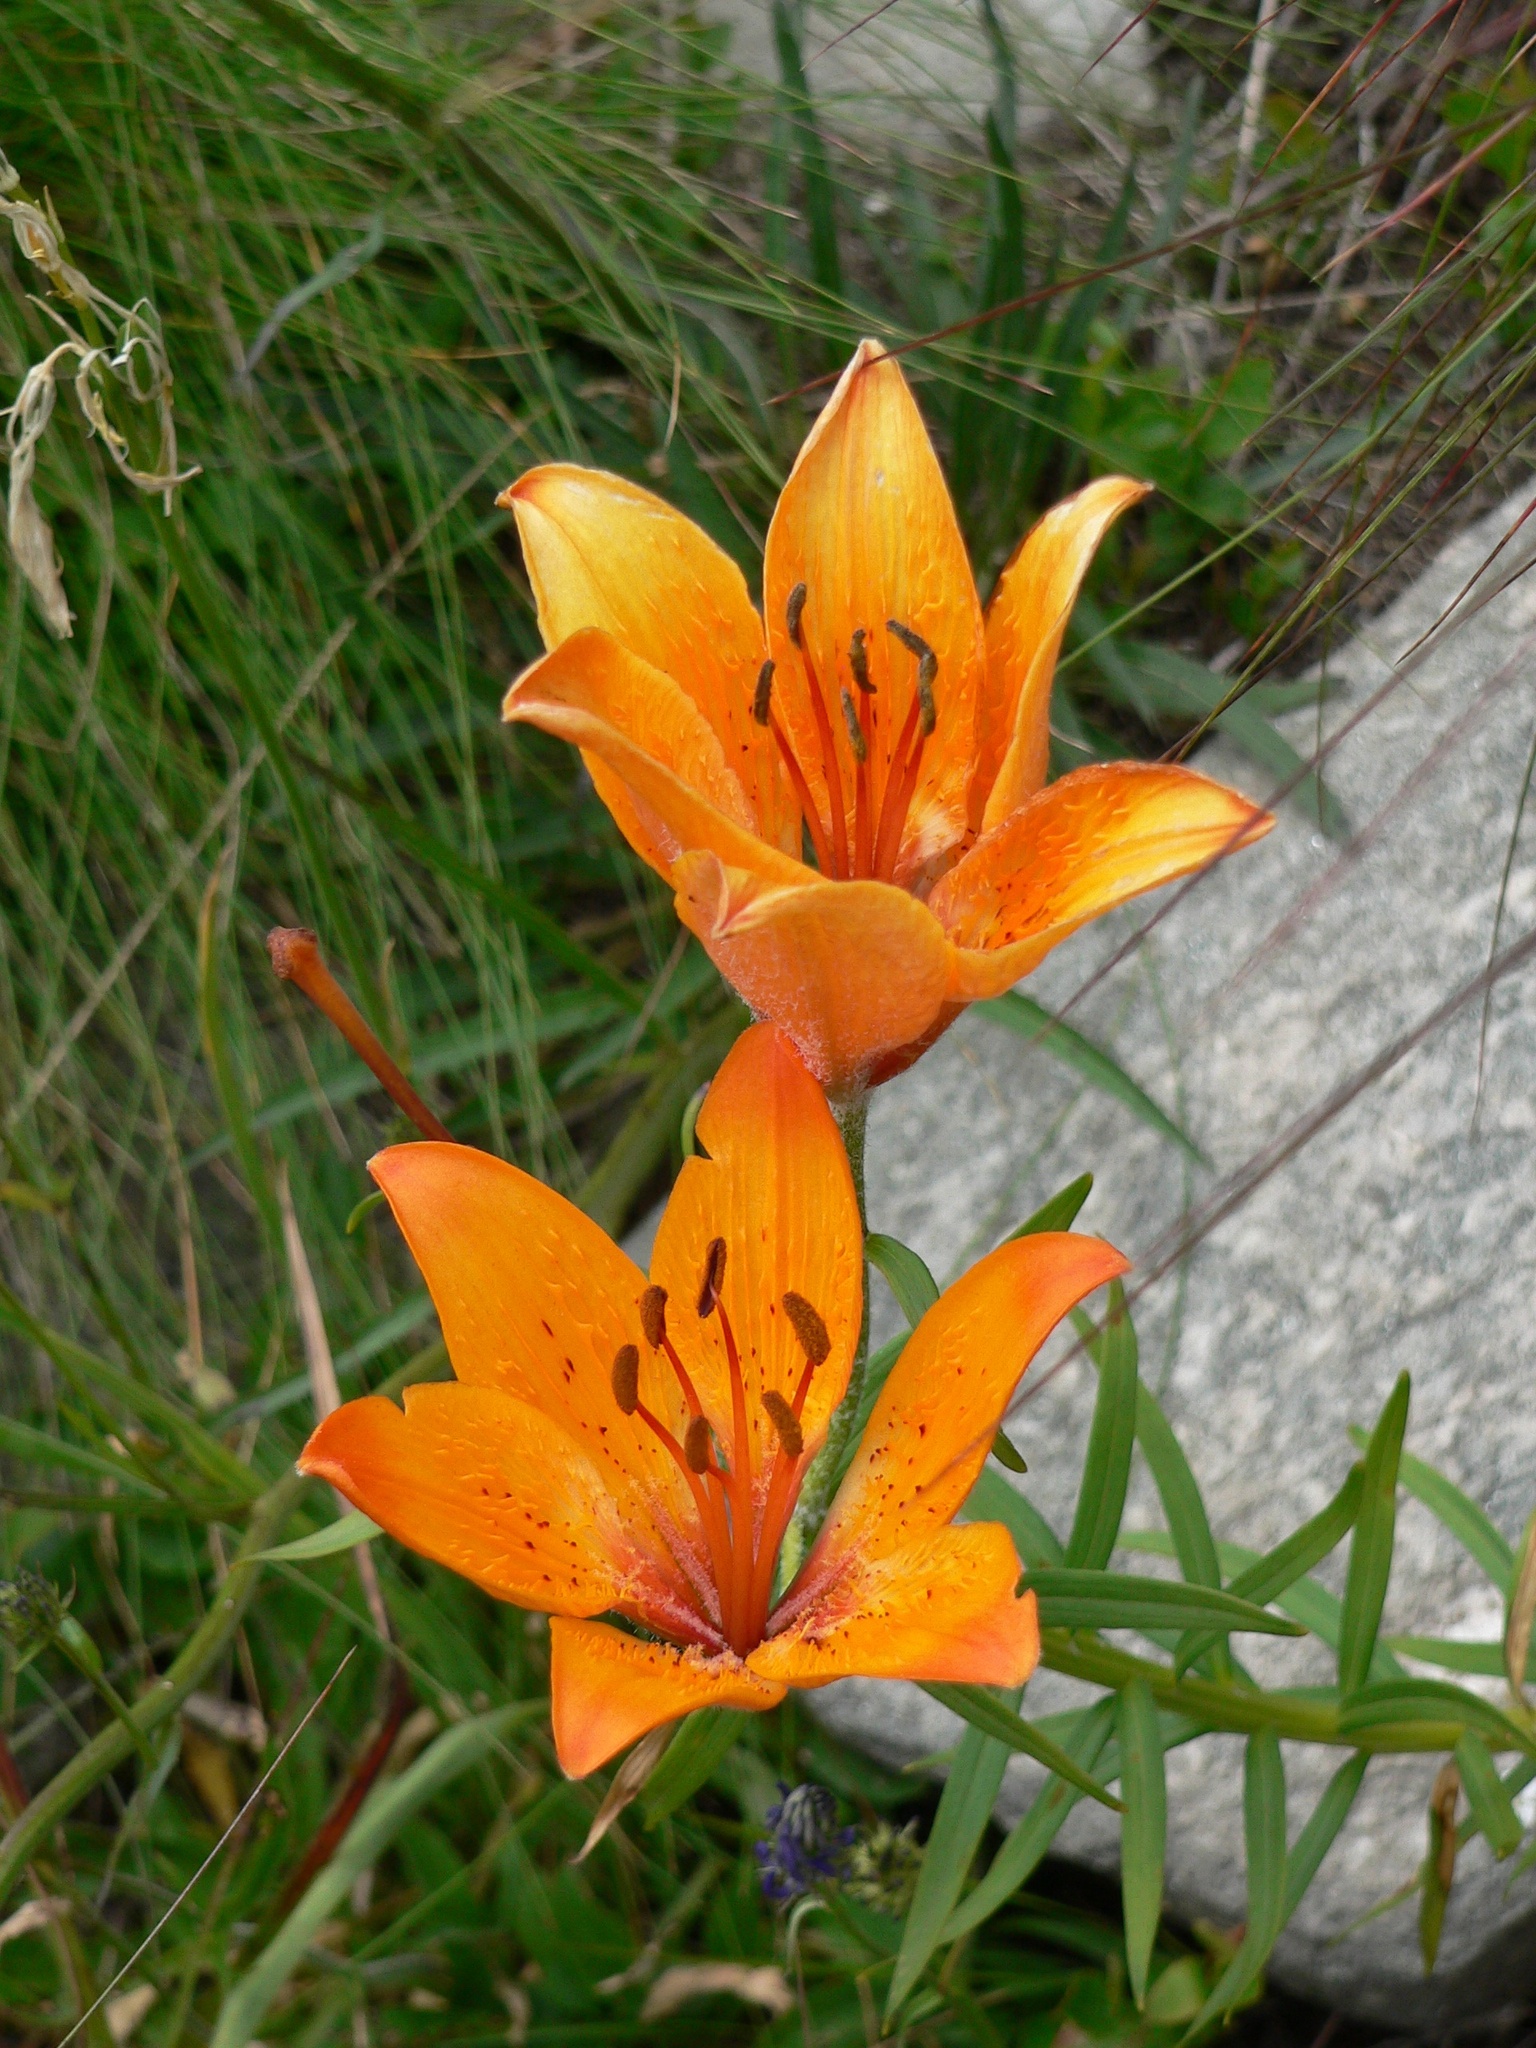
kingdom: Plantae
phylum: Tracheophyta
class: Liliopsida
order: Liliales
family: Liliaceae
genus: Lilium
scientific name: Lilium bulbiferum
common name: Orange lily
